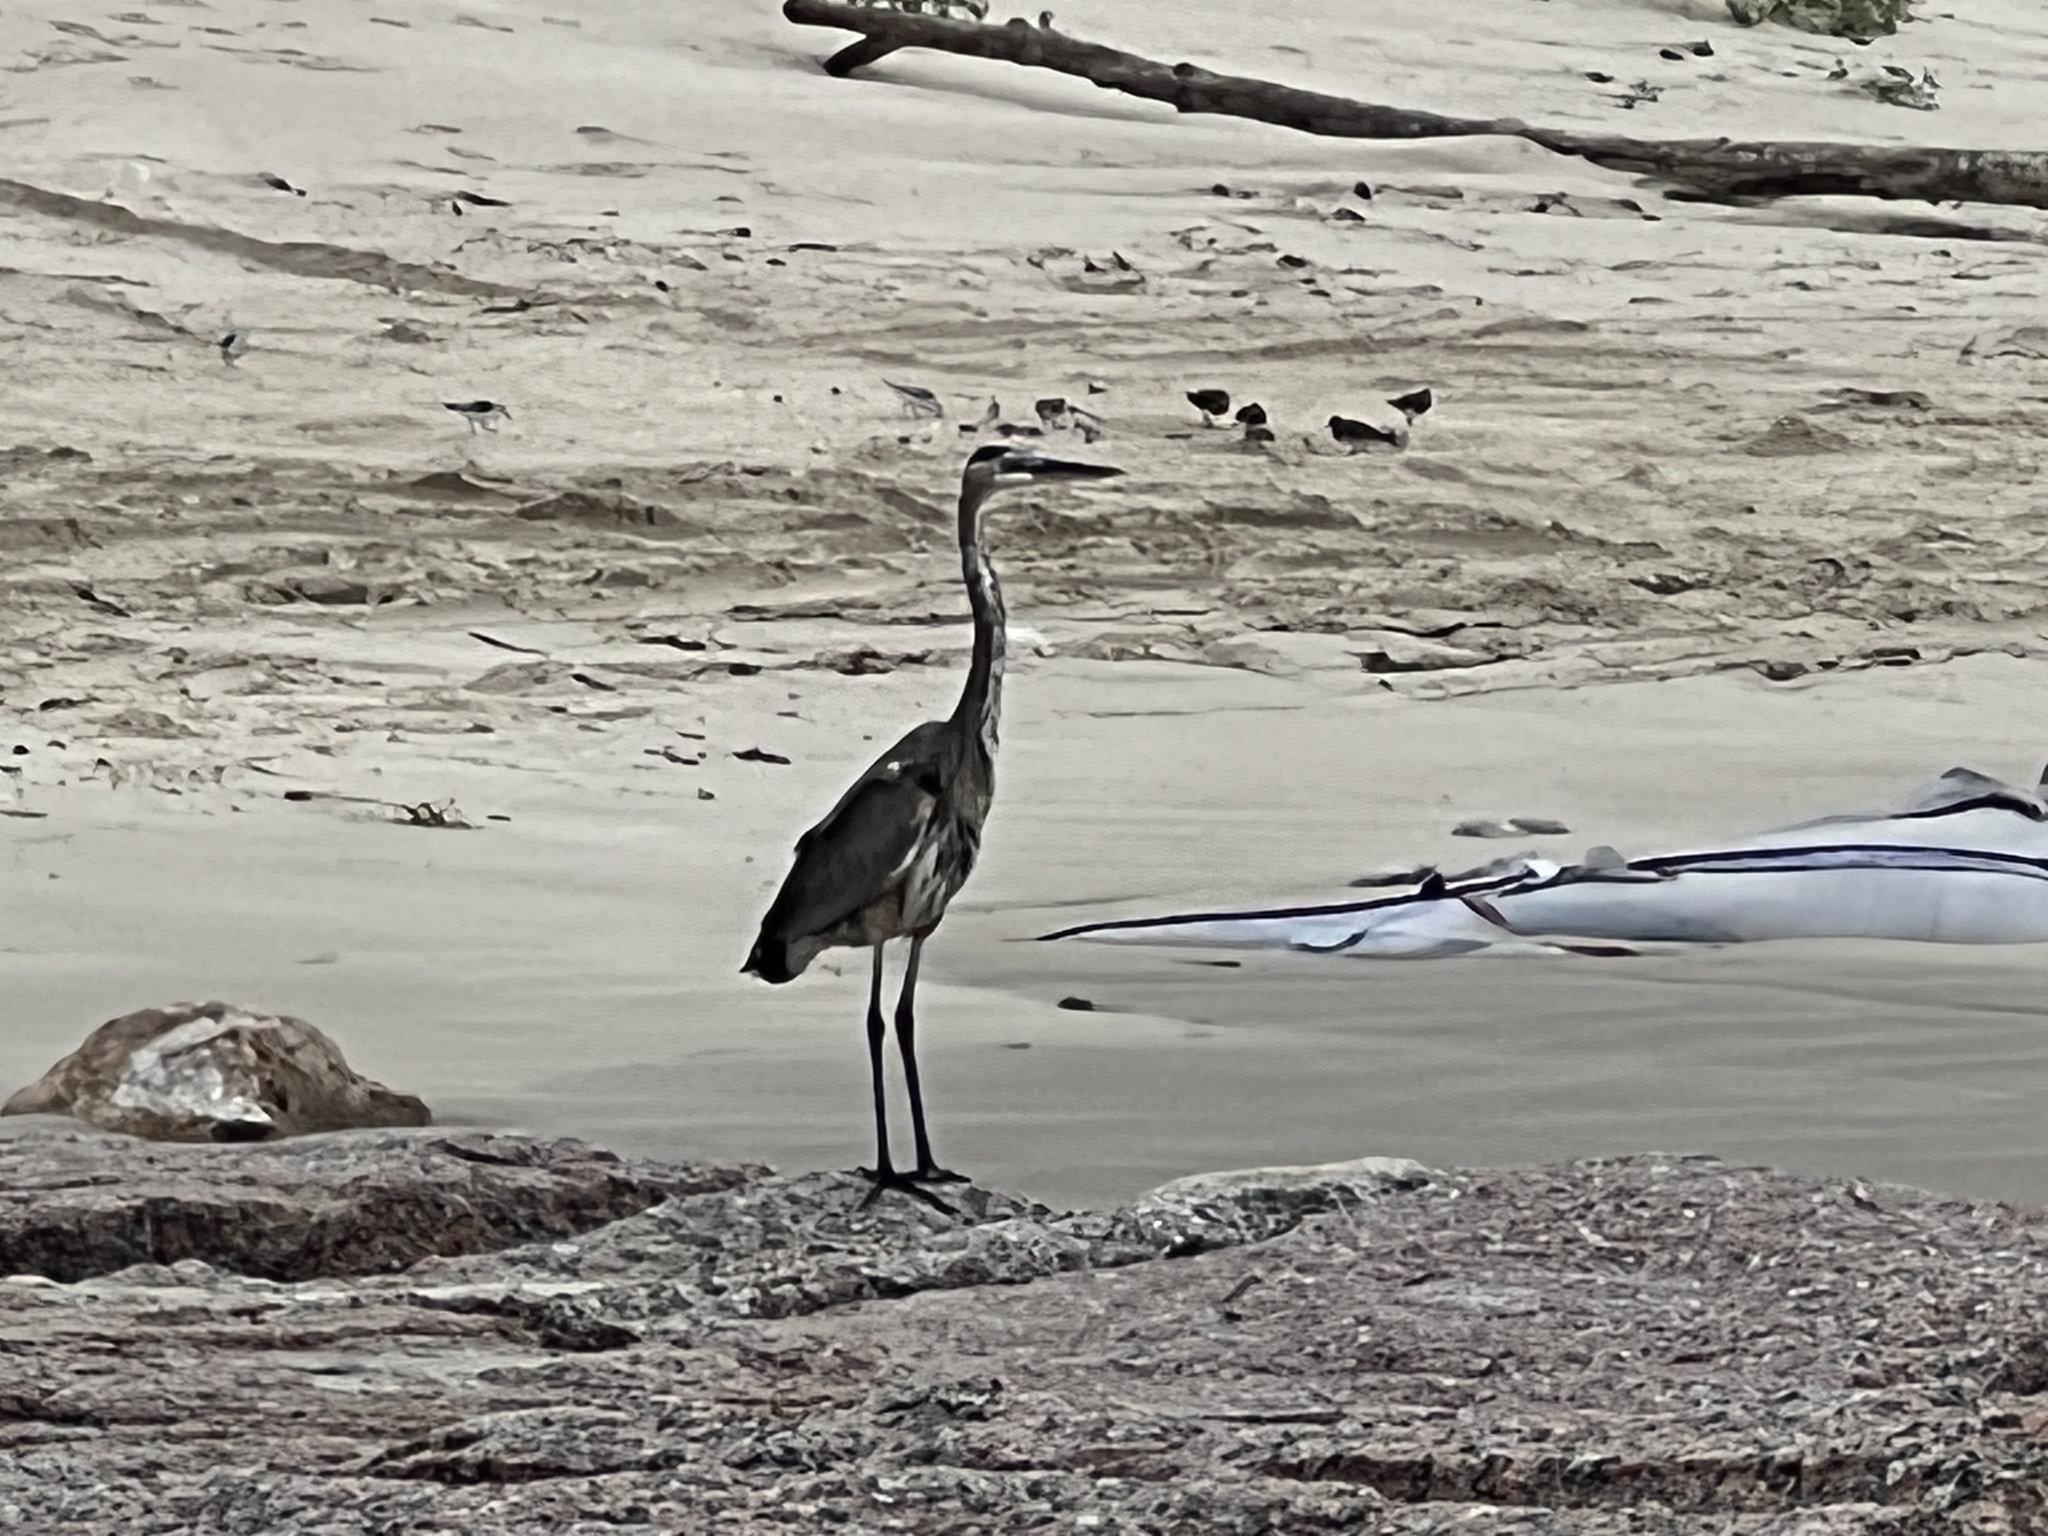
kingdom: Animalia
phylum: Chordata
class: Aves
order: Pelecaniformes
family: Ardeidae
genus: Ardea
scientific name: Ardea herodias
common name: Great blue heron
